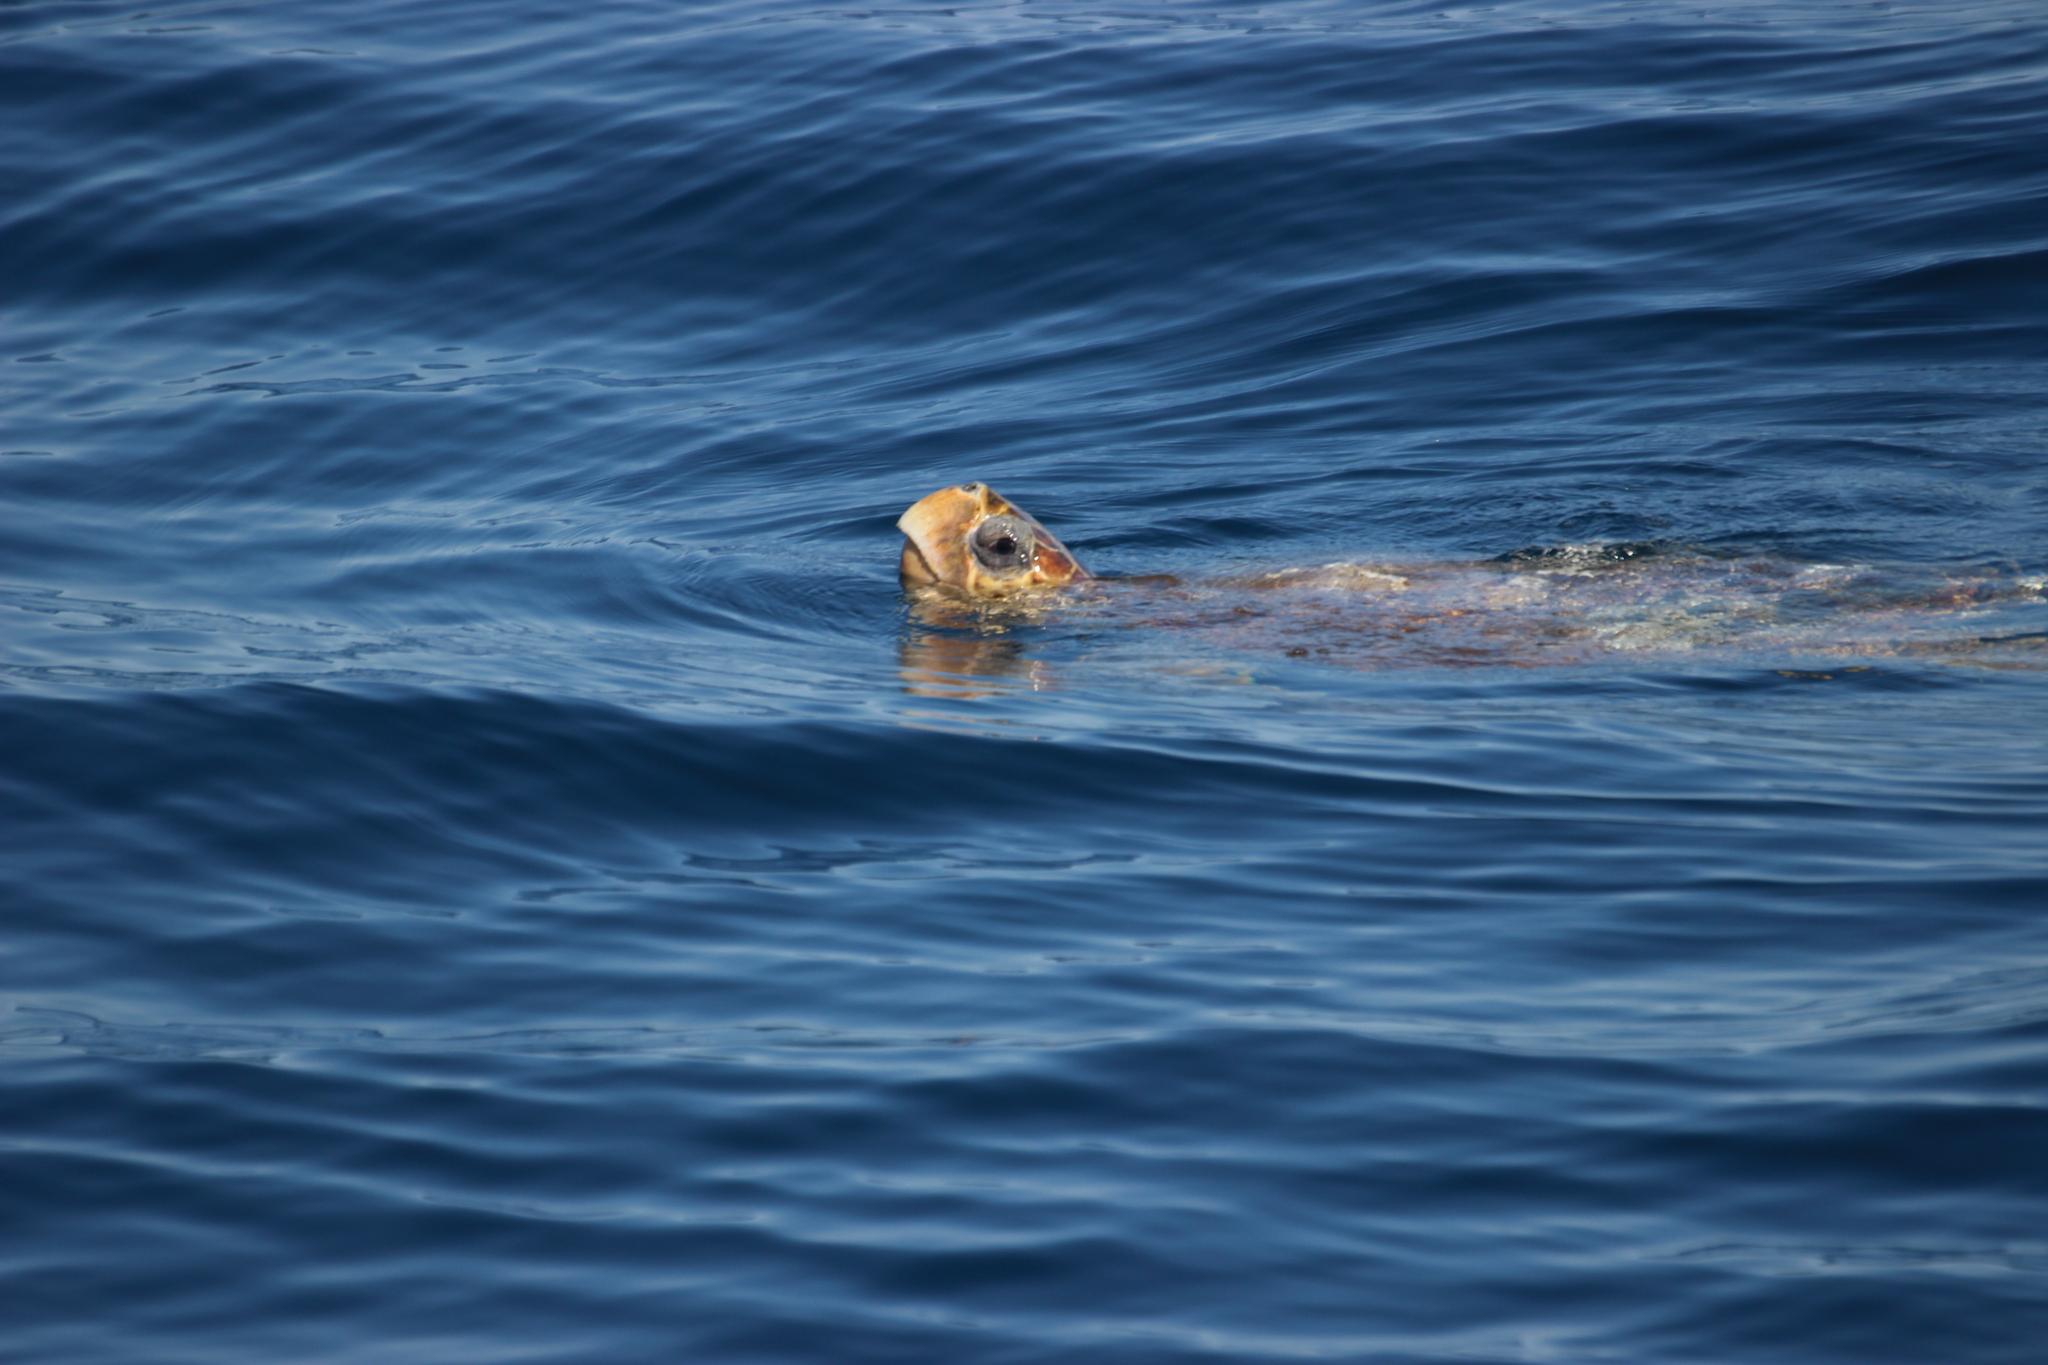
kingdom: Animalia
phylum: Chordata
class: Testudines
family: Cheloniidae
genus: Caretta
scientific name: Caretta caretta
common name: Loggerhead sea turtle
